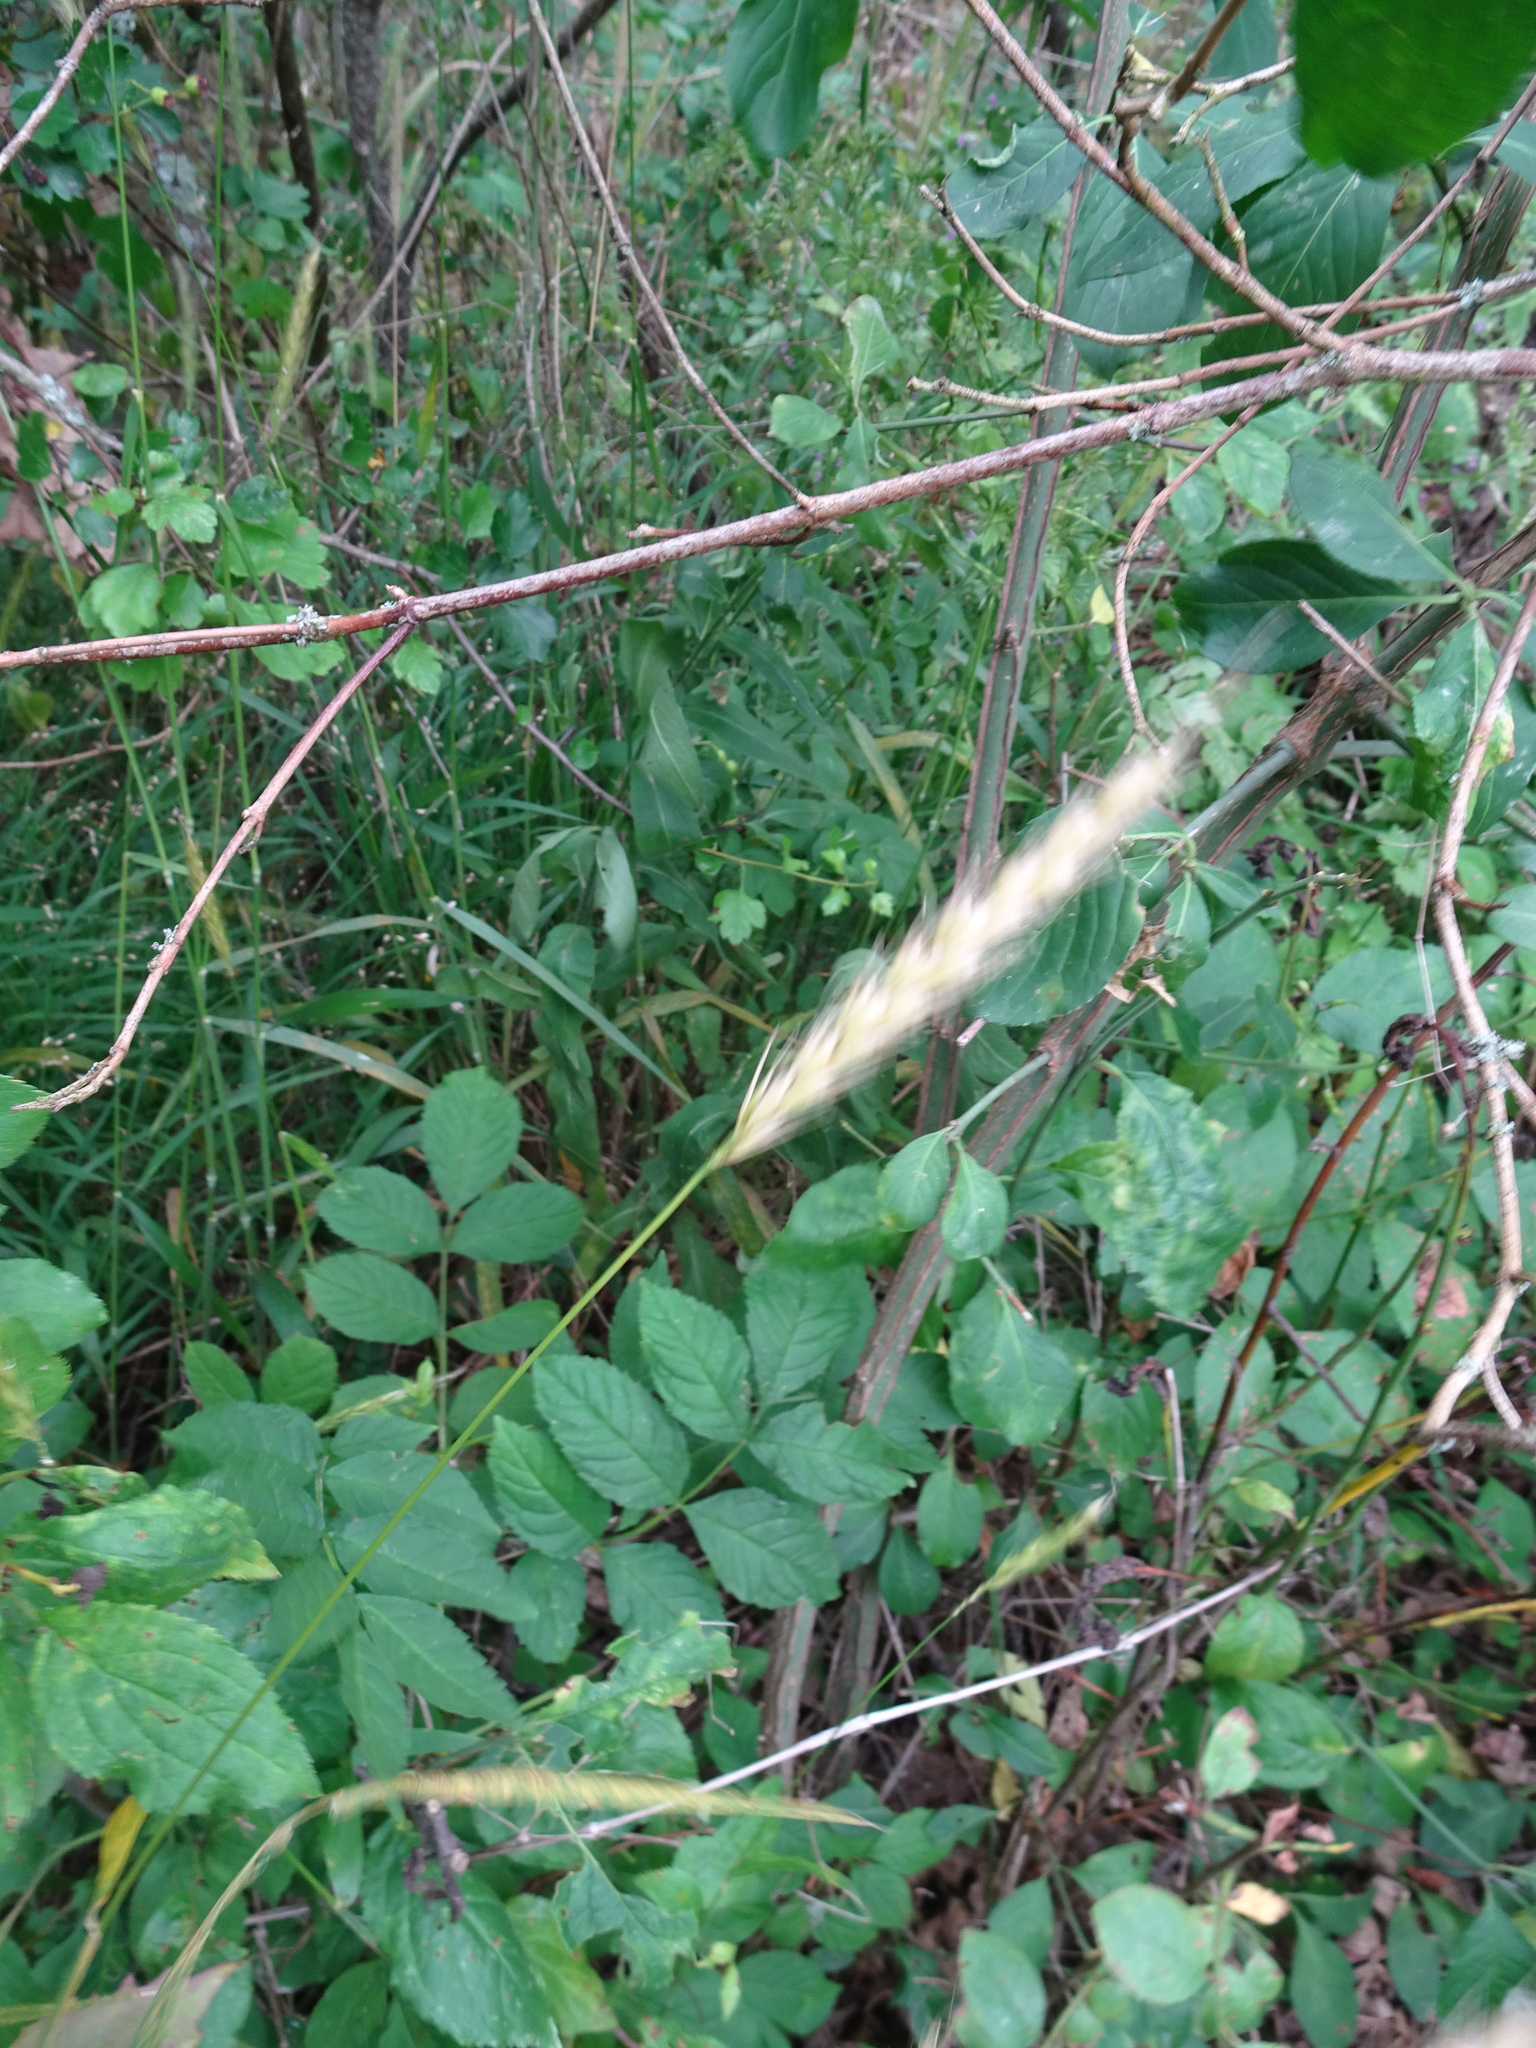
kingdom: Plantae
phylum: Tracheophyta
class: Liliopsida
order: Poales
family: Poaceae
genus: Hordelymus
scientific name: Hordelymus europaeus
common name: Wood-barley
